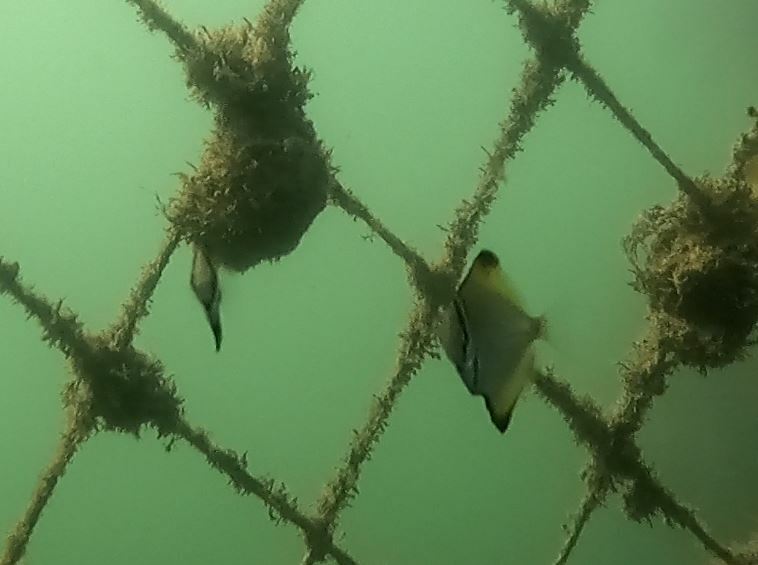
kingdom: Animalia
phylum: Chordata
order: Perciformes
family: Monodactylidae
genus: Monodactylus
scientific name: Monodactylus argenteus
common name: Silver moony
